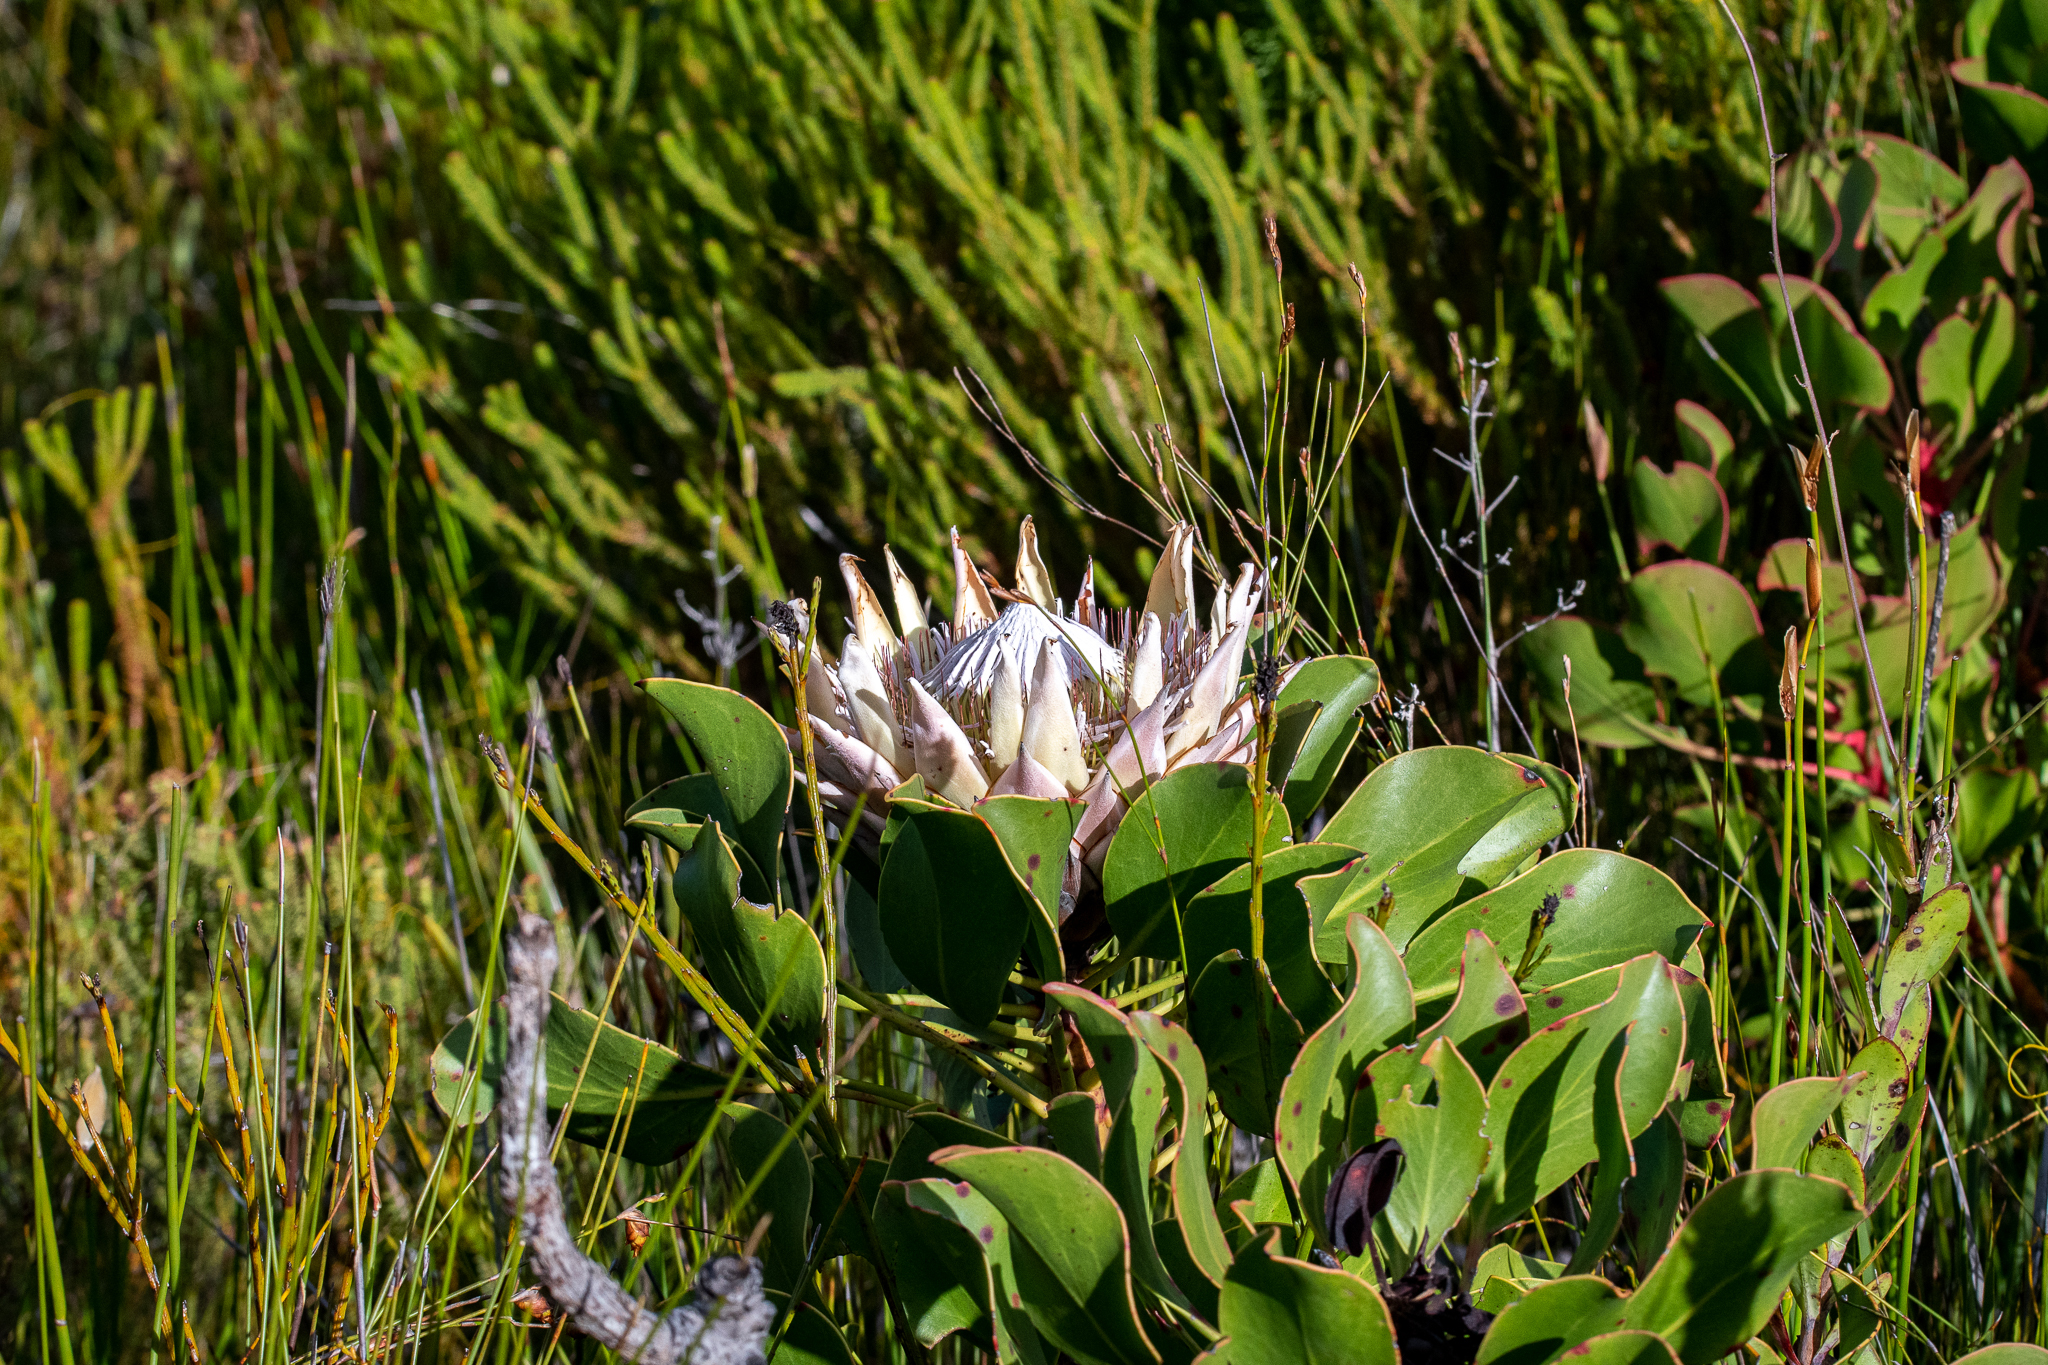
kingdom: Plantae
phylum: Tracheophyta
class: Magnoliopsida
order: Proteales
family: Proteaceae
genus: Protea
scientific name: Protea cynaroides
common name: King protea
